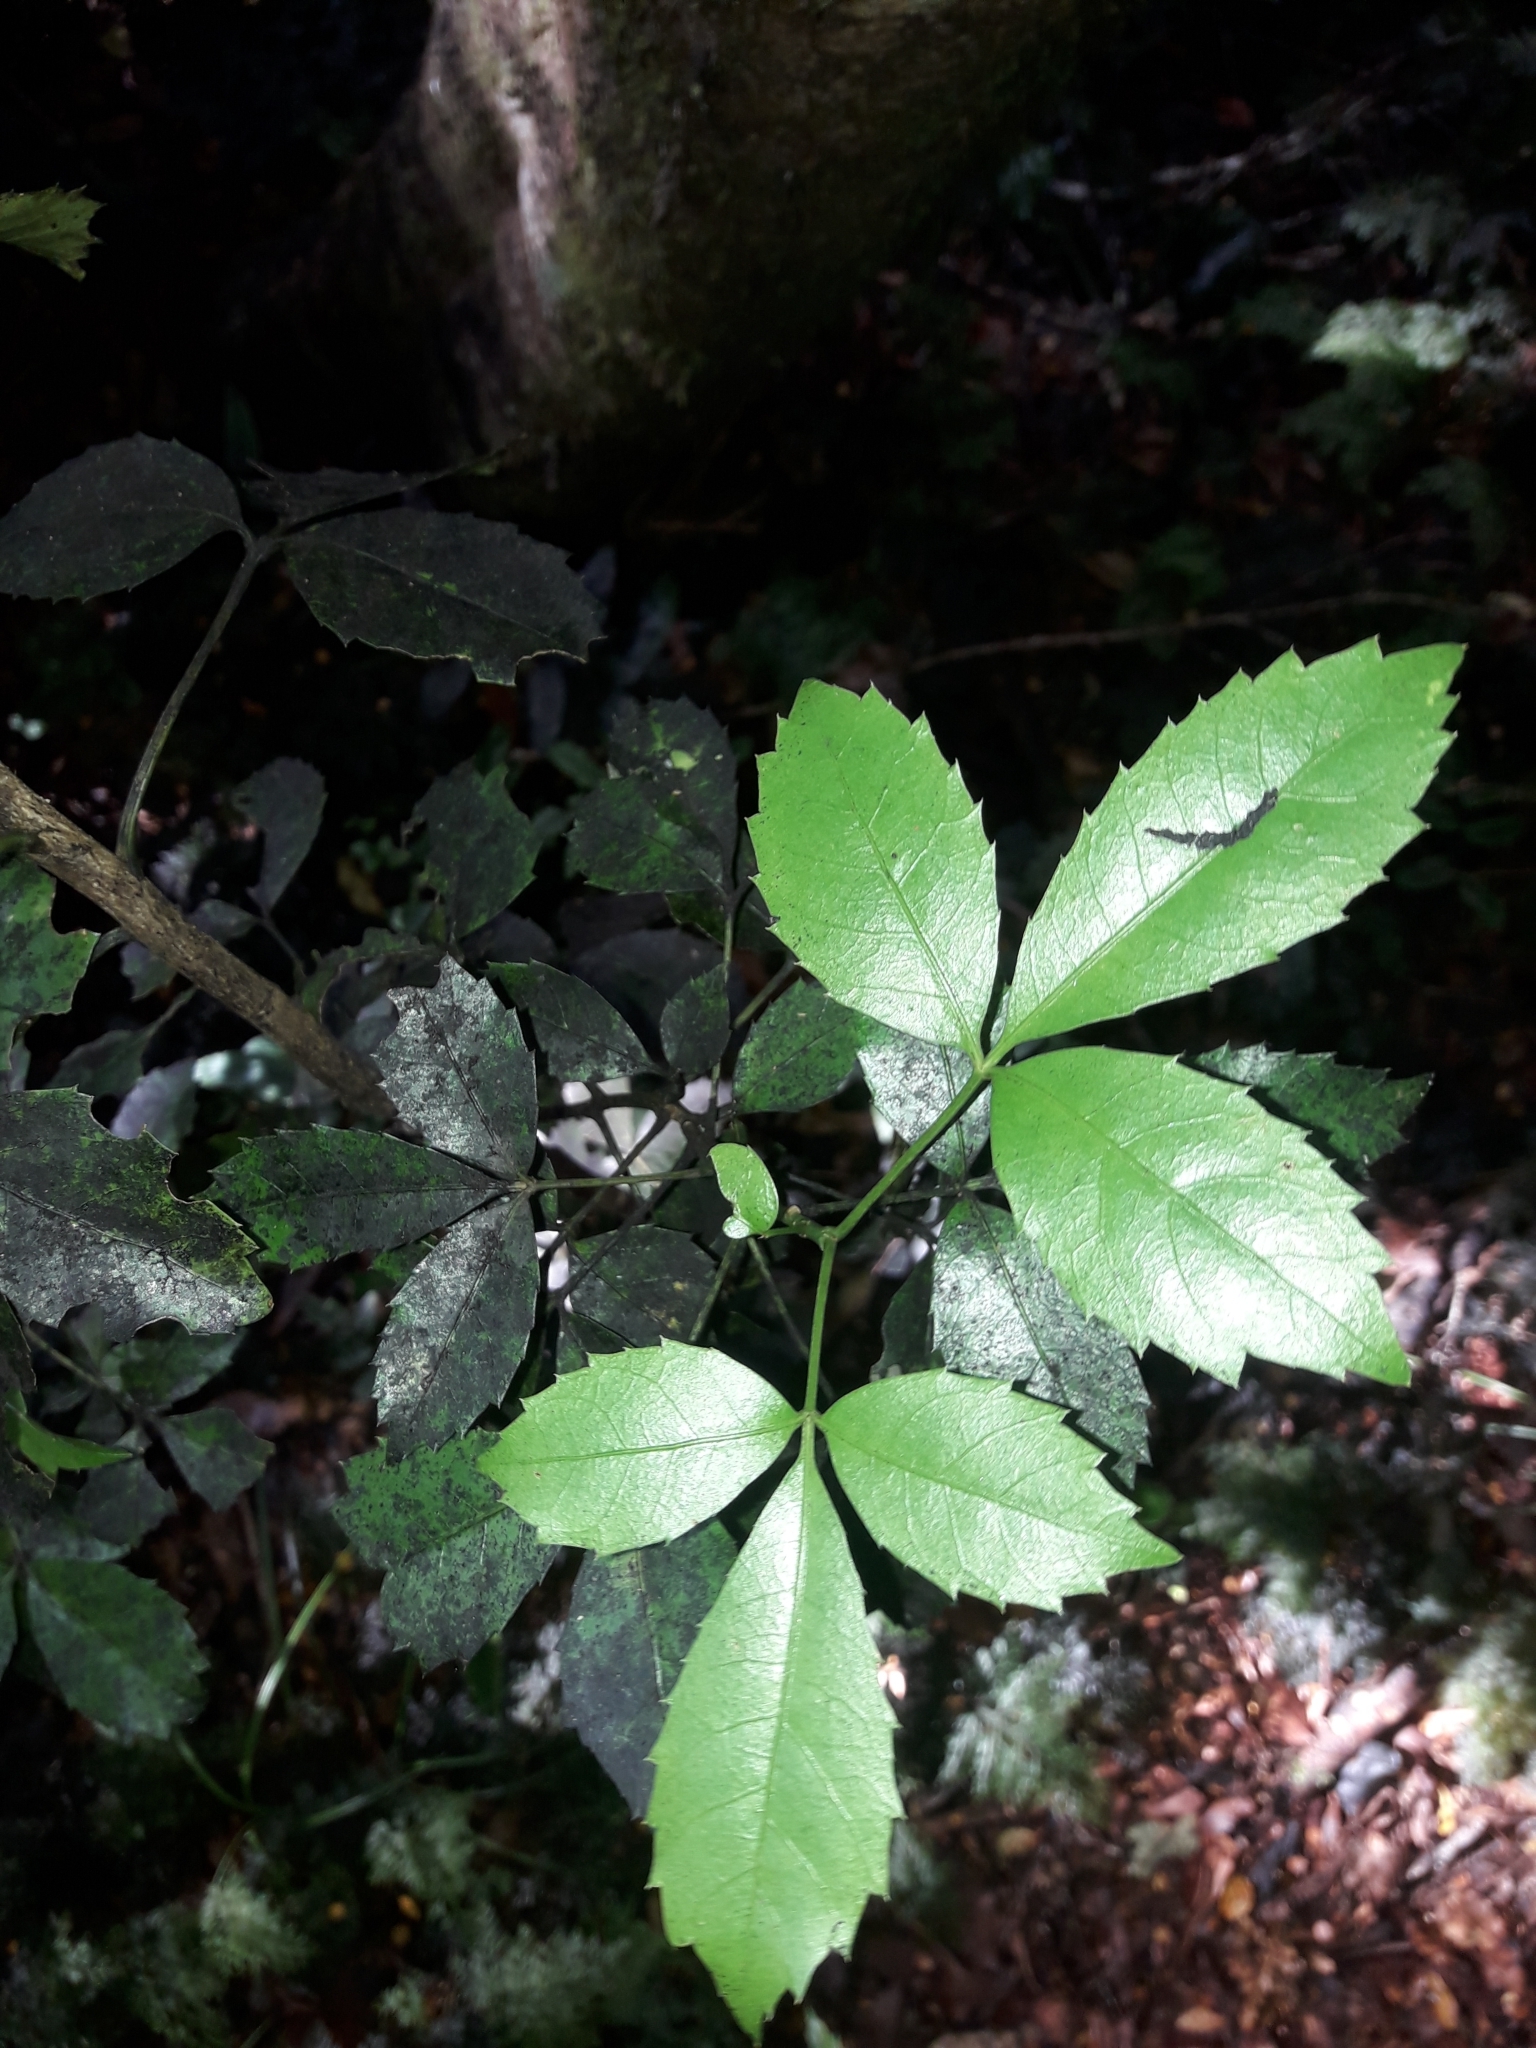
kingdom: Plantae
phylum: Tracheophyta
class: Magnoliopsida
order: Apiales
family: Araliaceae
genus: Raukaua
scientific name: Raukaua simplex
